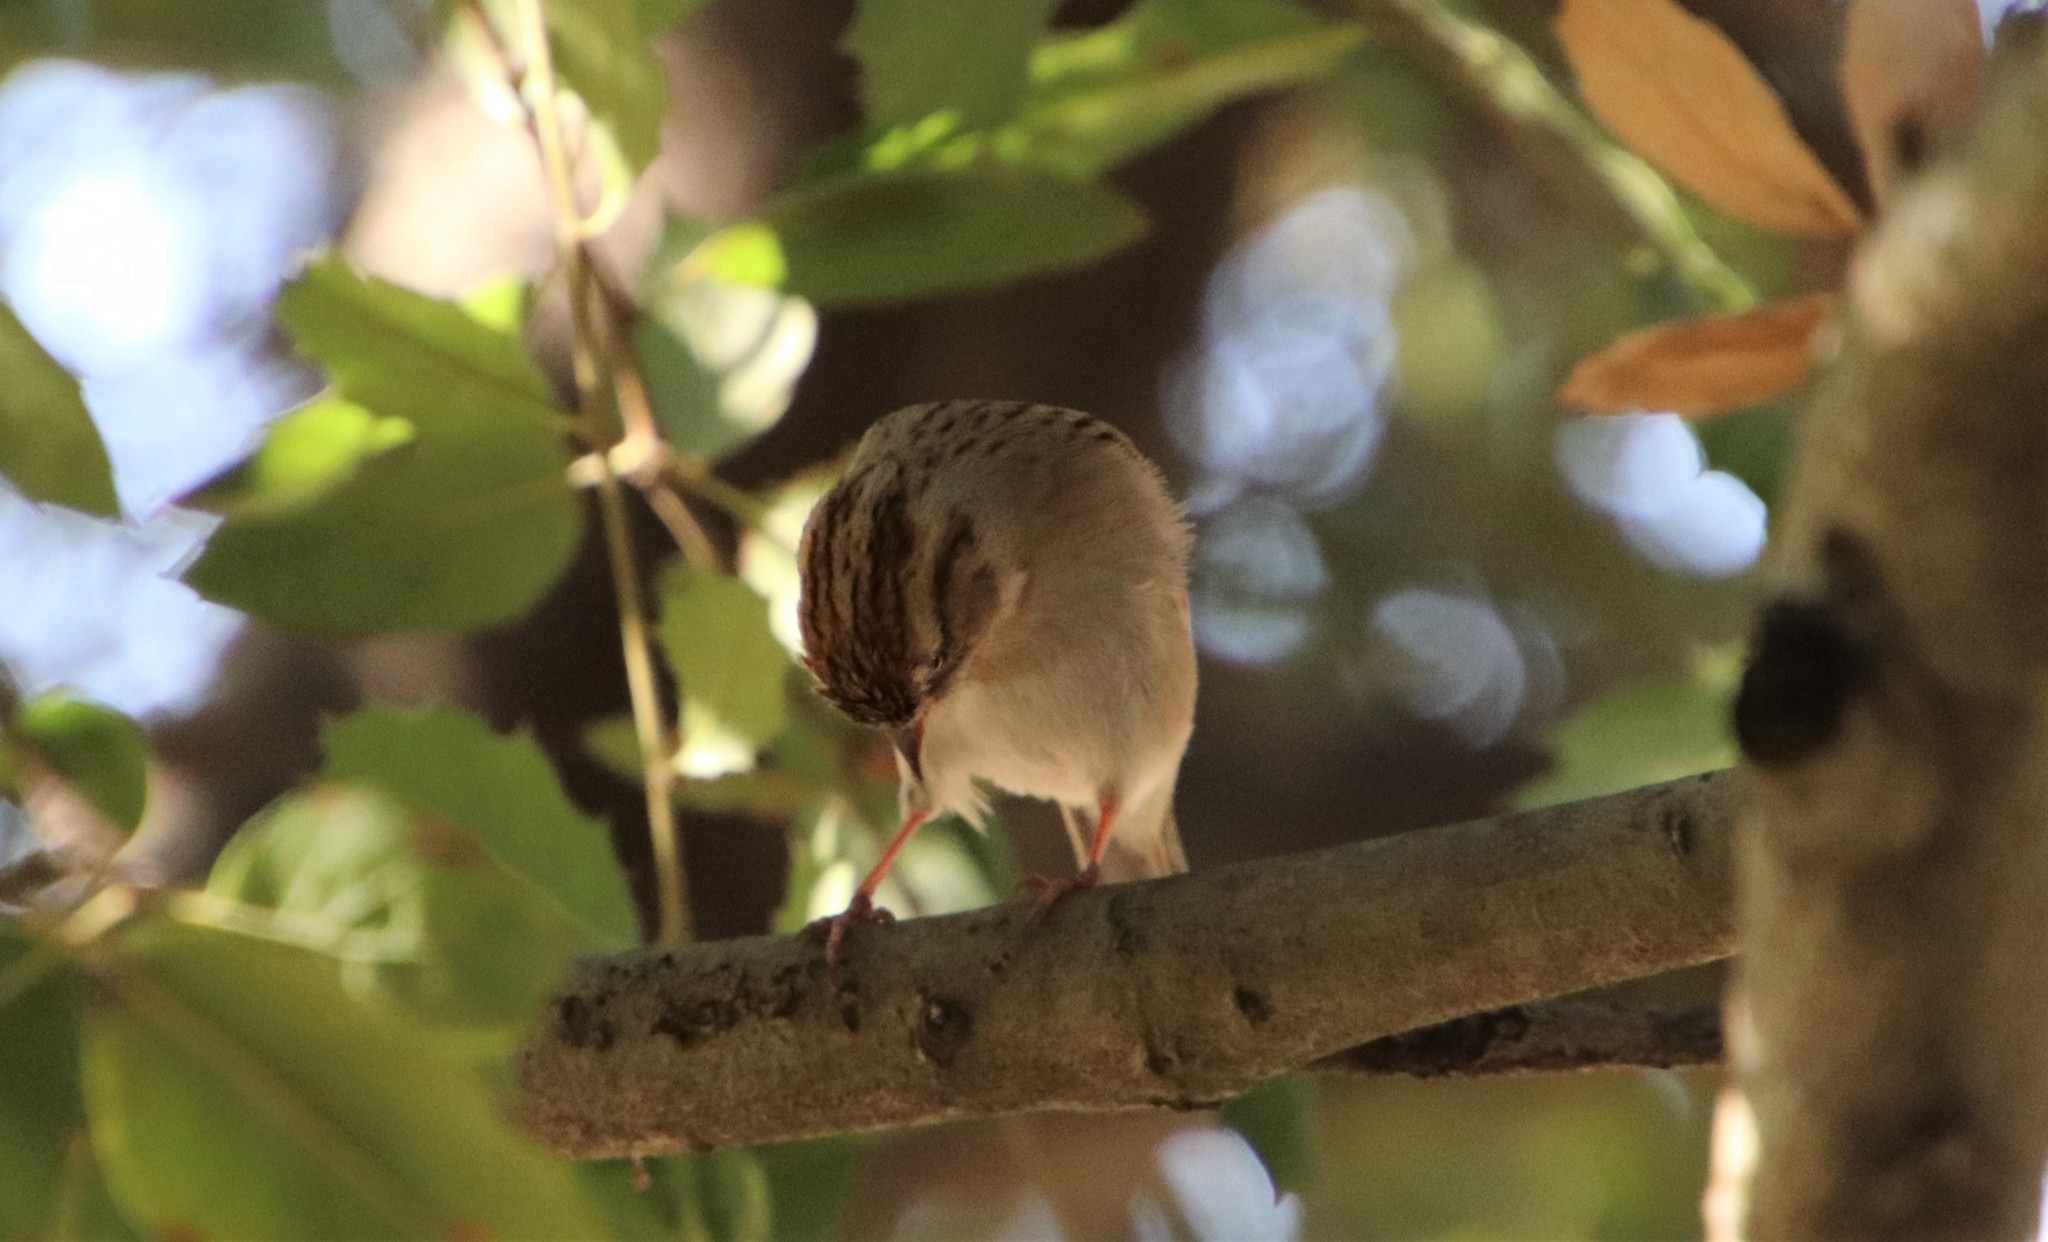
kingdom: Animalia
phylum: Chordata
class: Aves
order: Passeriformes
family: Passerellidae
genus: Spizella
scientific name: Spizella passerina
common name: Chipping sparrow
